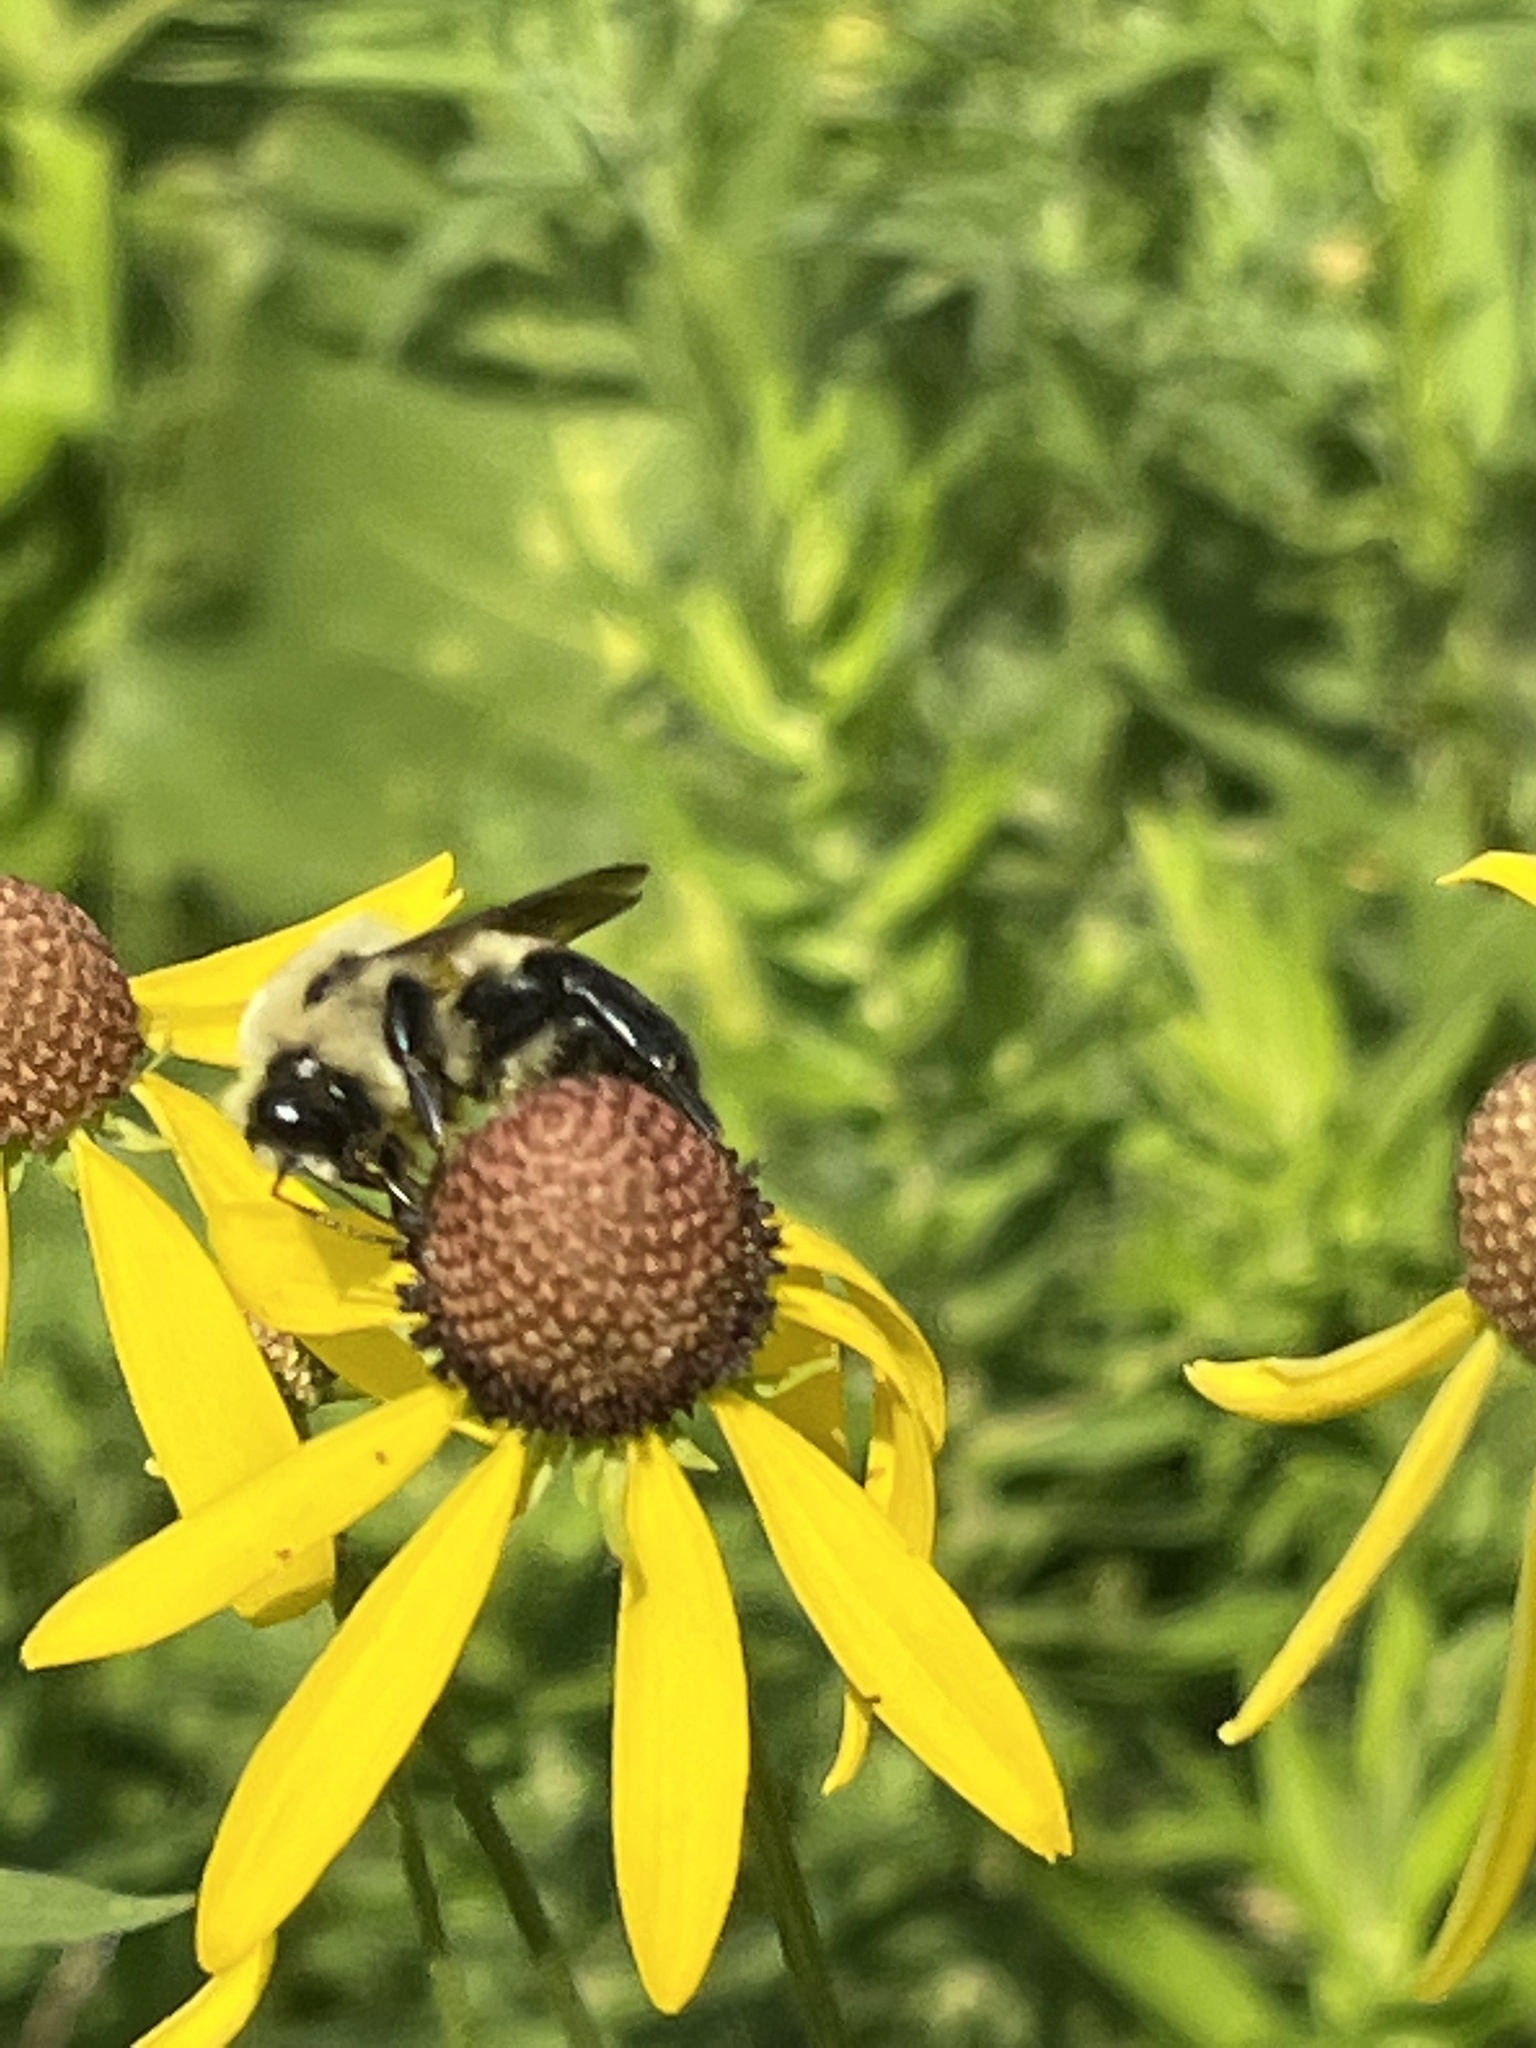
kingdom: Animalia
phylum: Arthropoda
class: Insecta
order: Hymenoptera
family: Apidae
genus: Bombus
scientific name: Bombus griseocollis
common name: Brown-belted bumble bee
